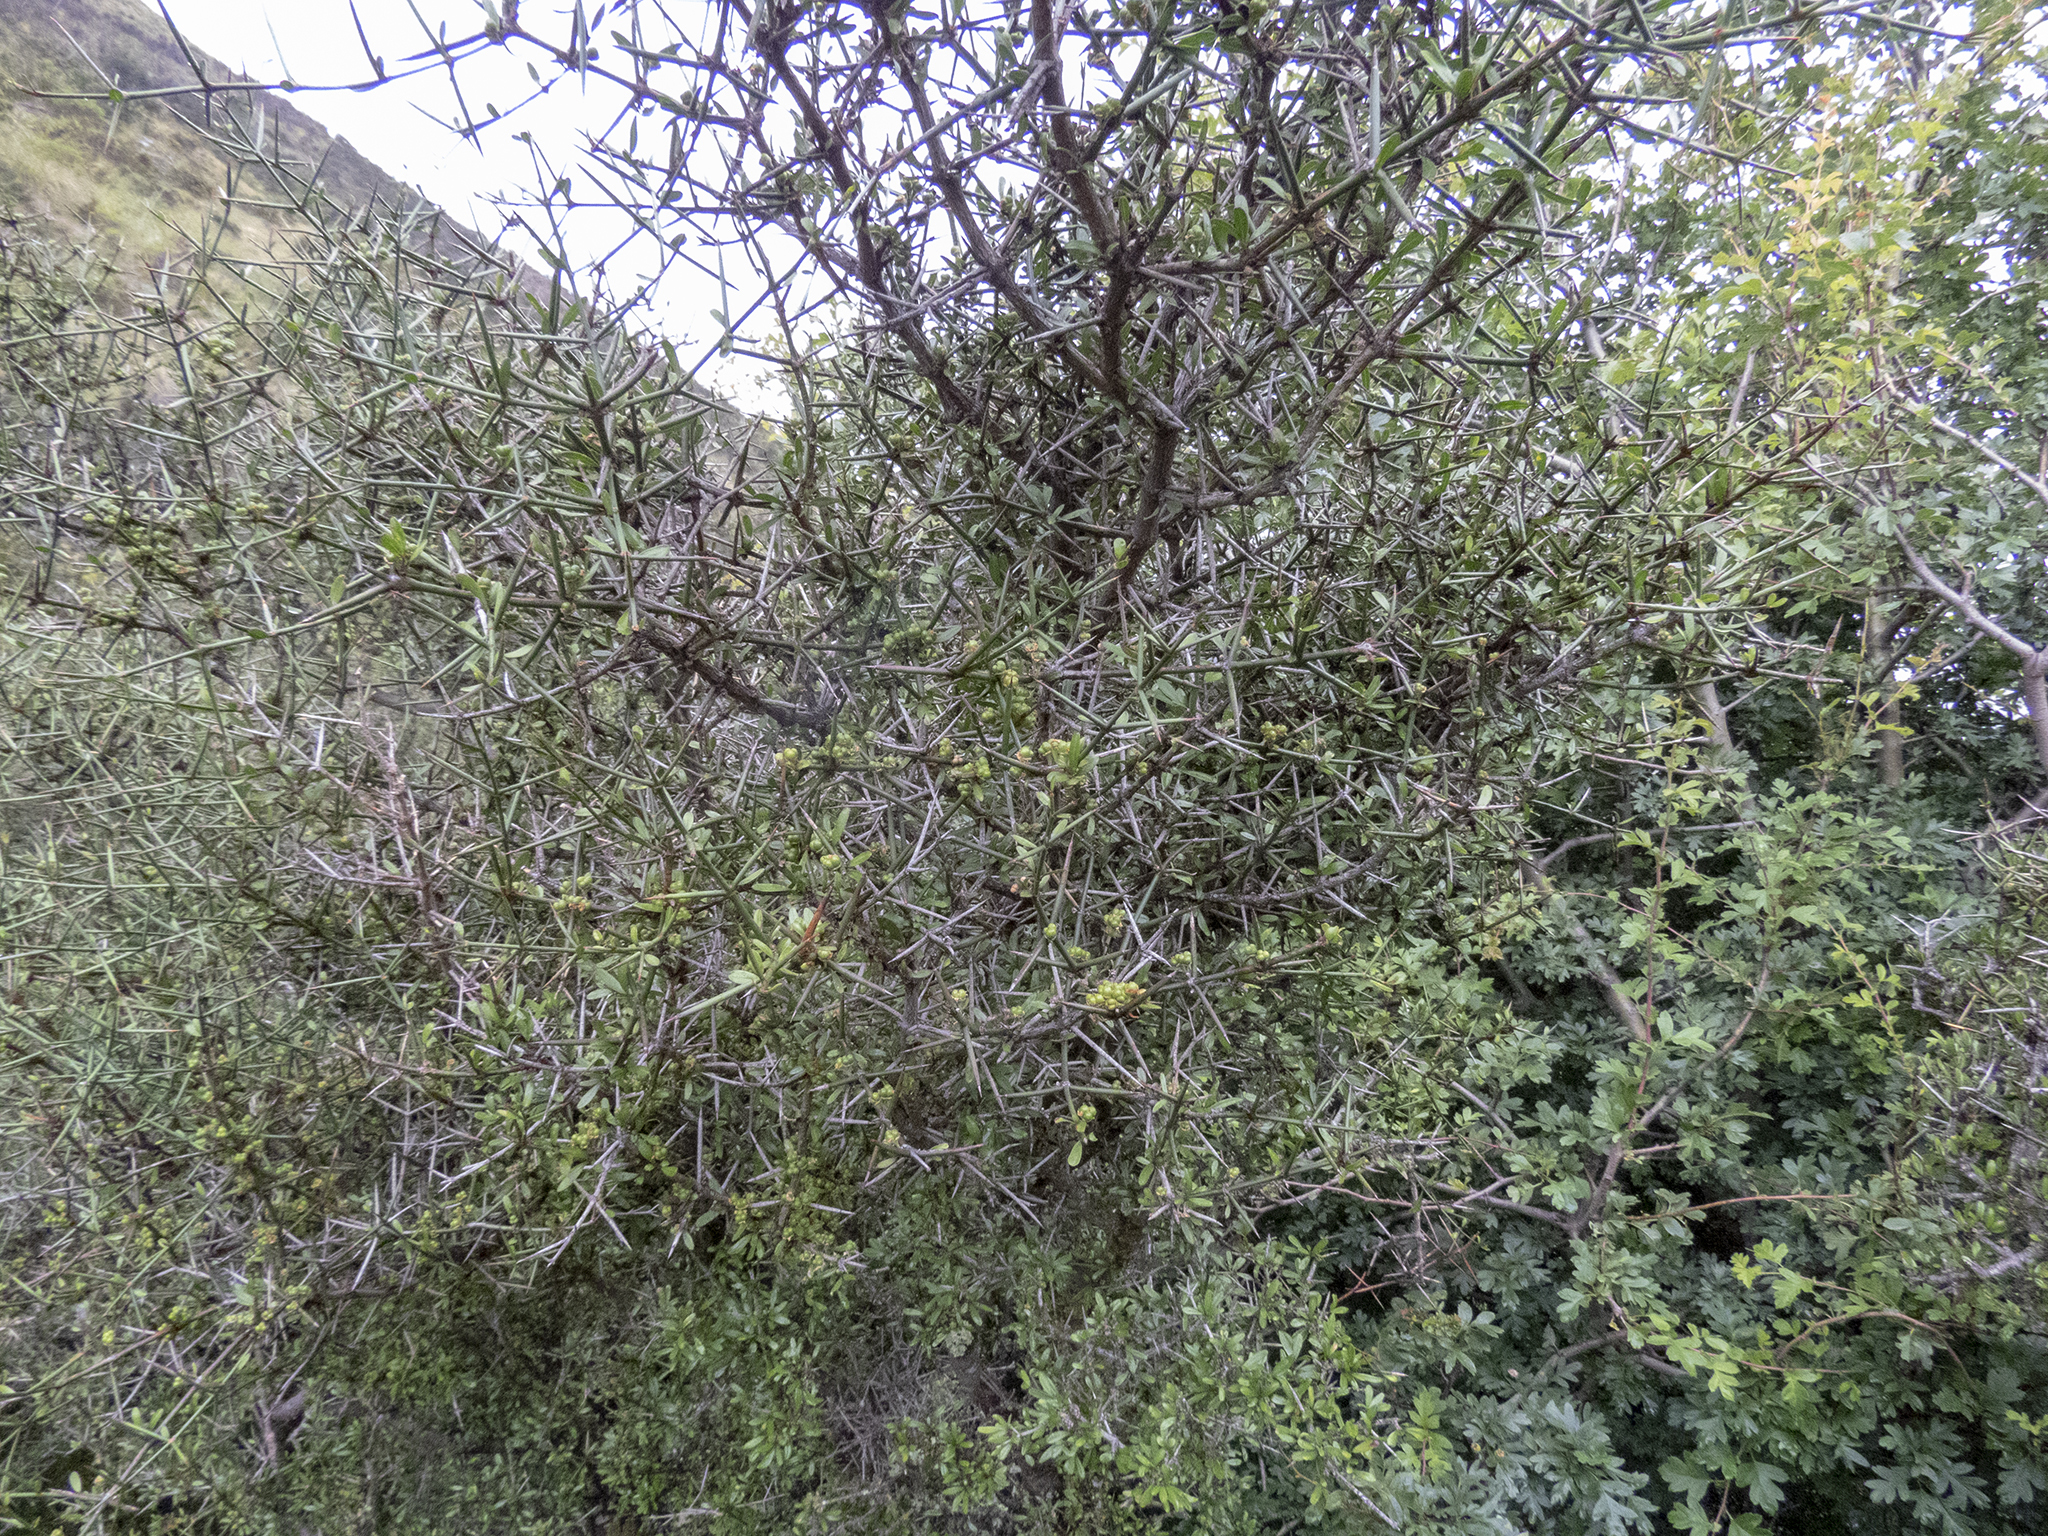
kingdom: Plantae
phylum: Tracheophyta
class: Magnoliopsida
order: Rosales
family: Rhamnaceae
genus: Discaria
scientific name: Discaria toumatou
